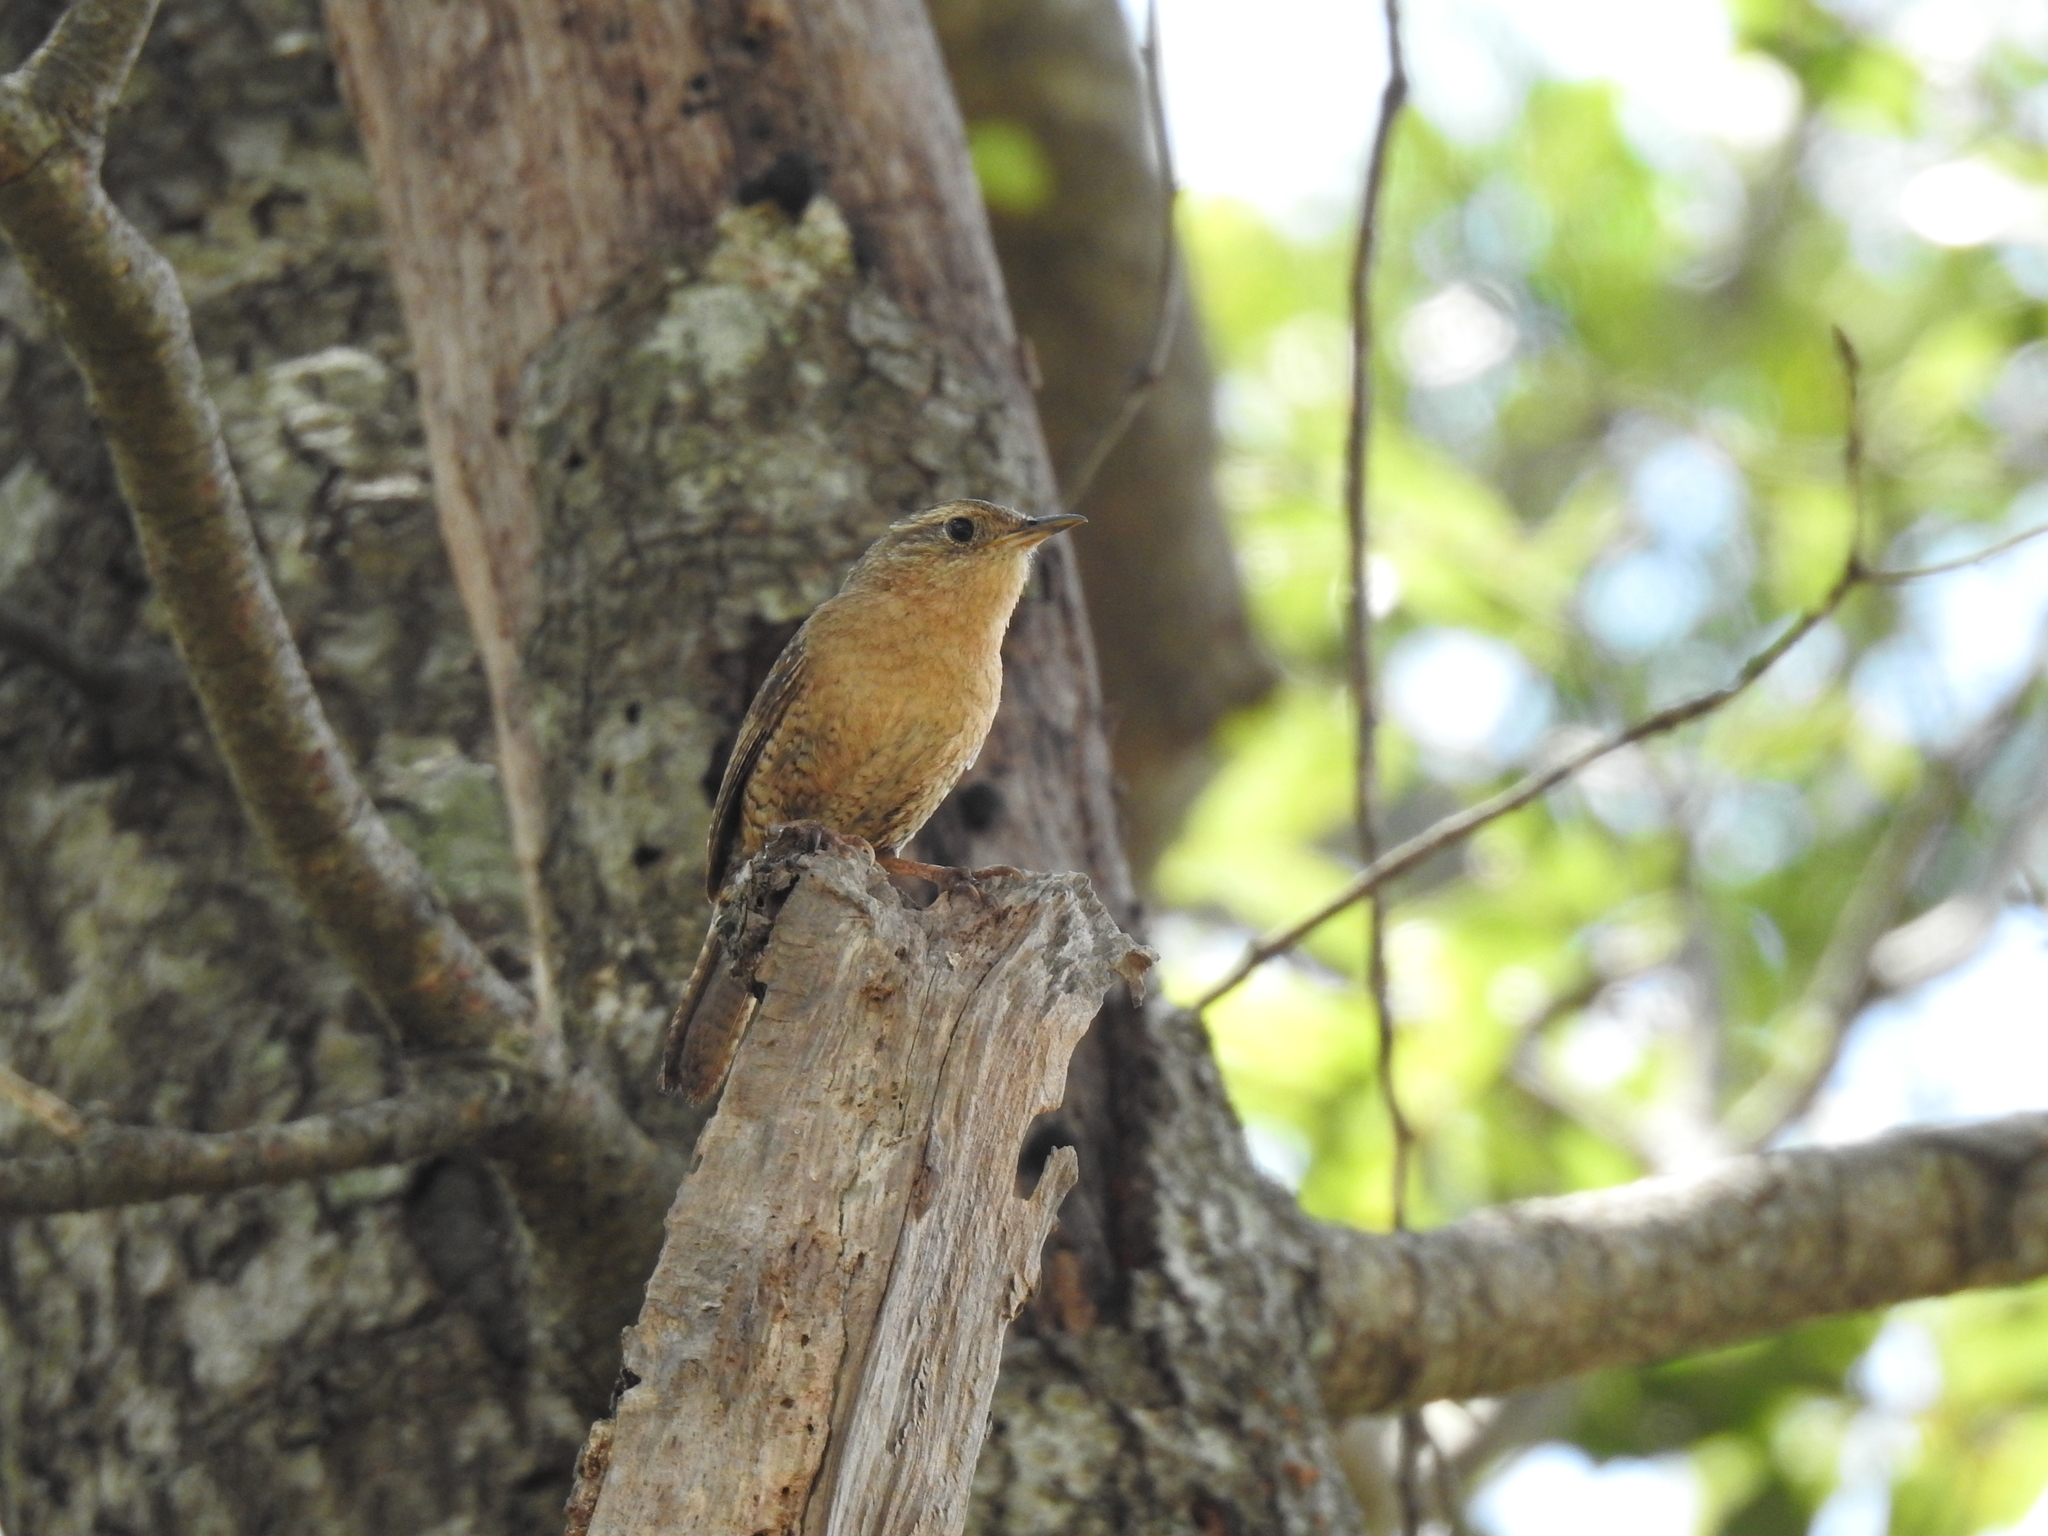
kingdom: Animalia
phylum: Chordata
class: Aves
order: Passeriformes
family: Troglodytidae
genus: Troglodytes
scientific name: Troglodytes aedon
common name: House wren
